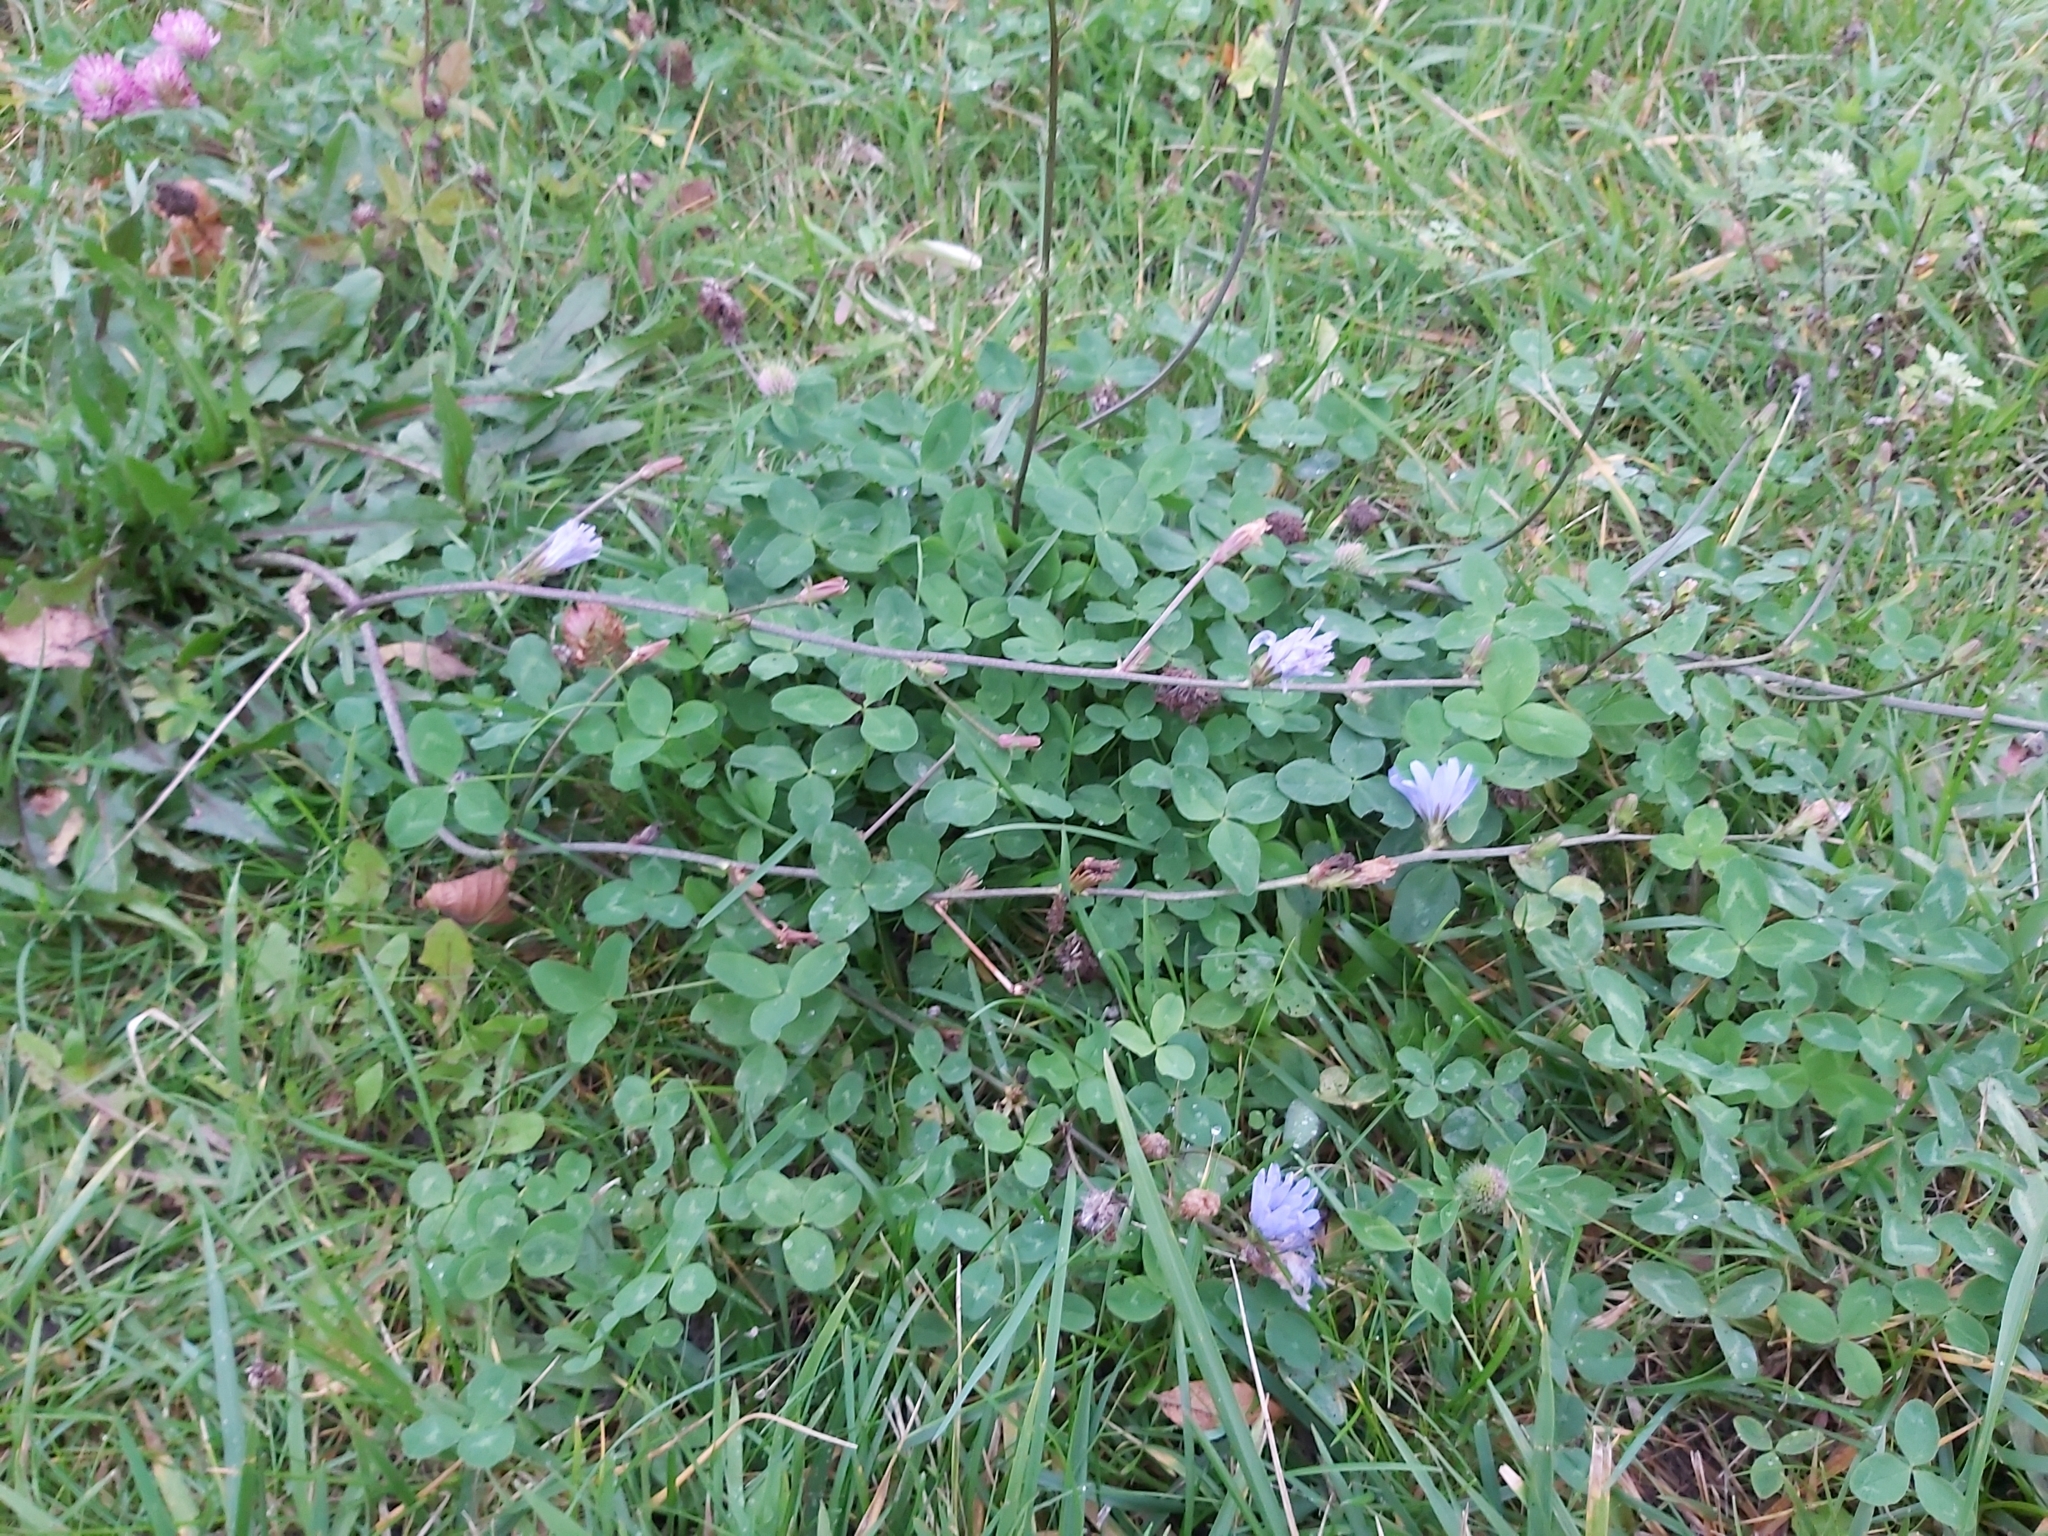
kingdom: Plantae
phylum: Tracheophyta
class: Magnoliopsida
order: Asterales
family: Asteraceae
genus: Cichorium
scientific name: Cichorium intybus
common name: Chicory
